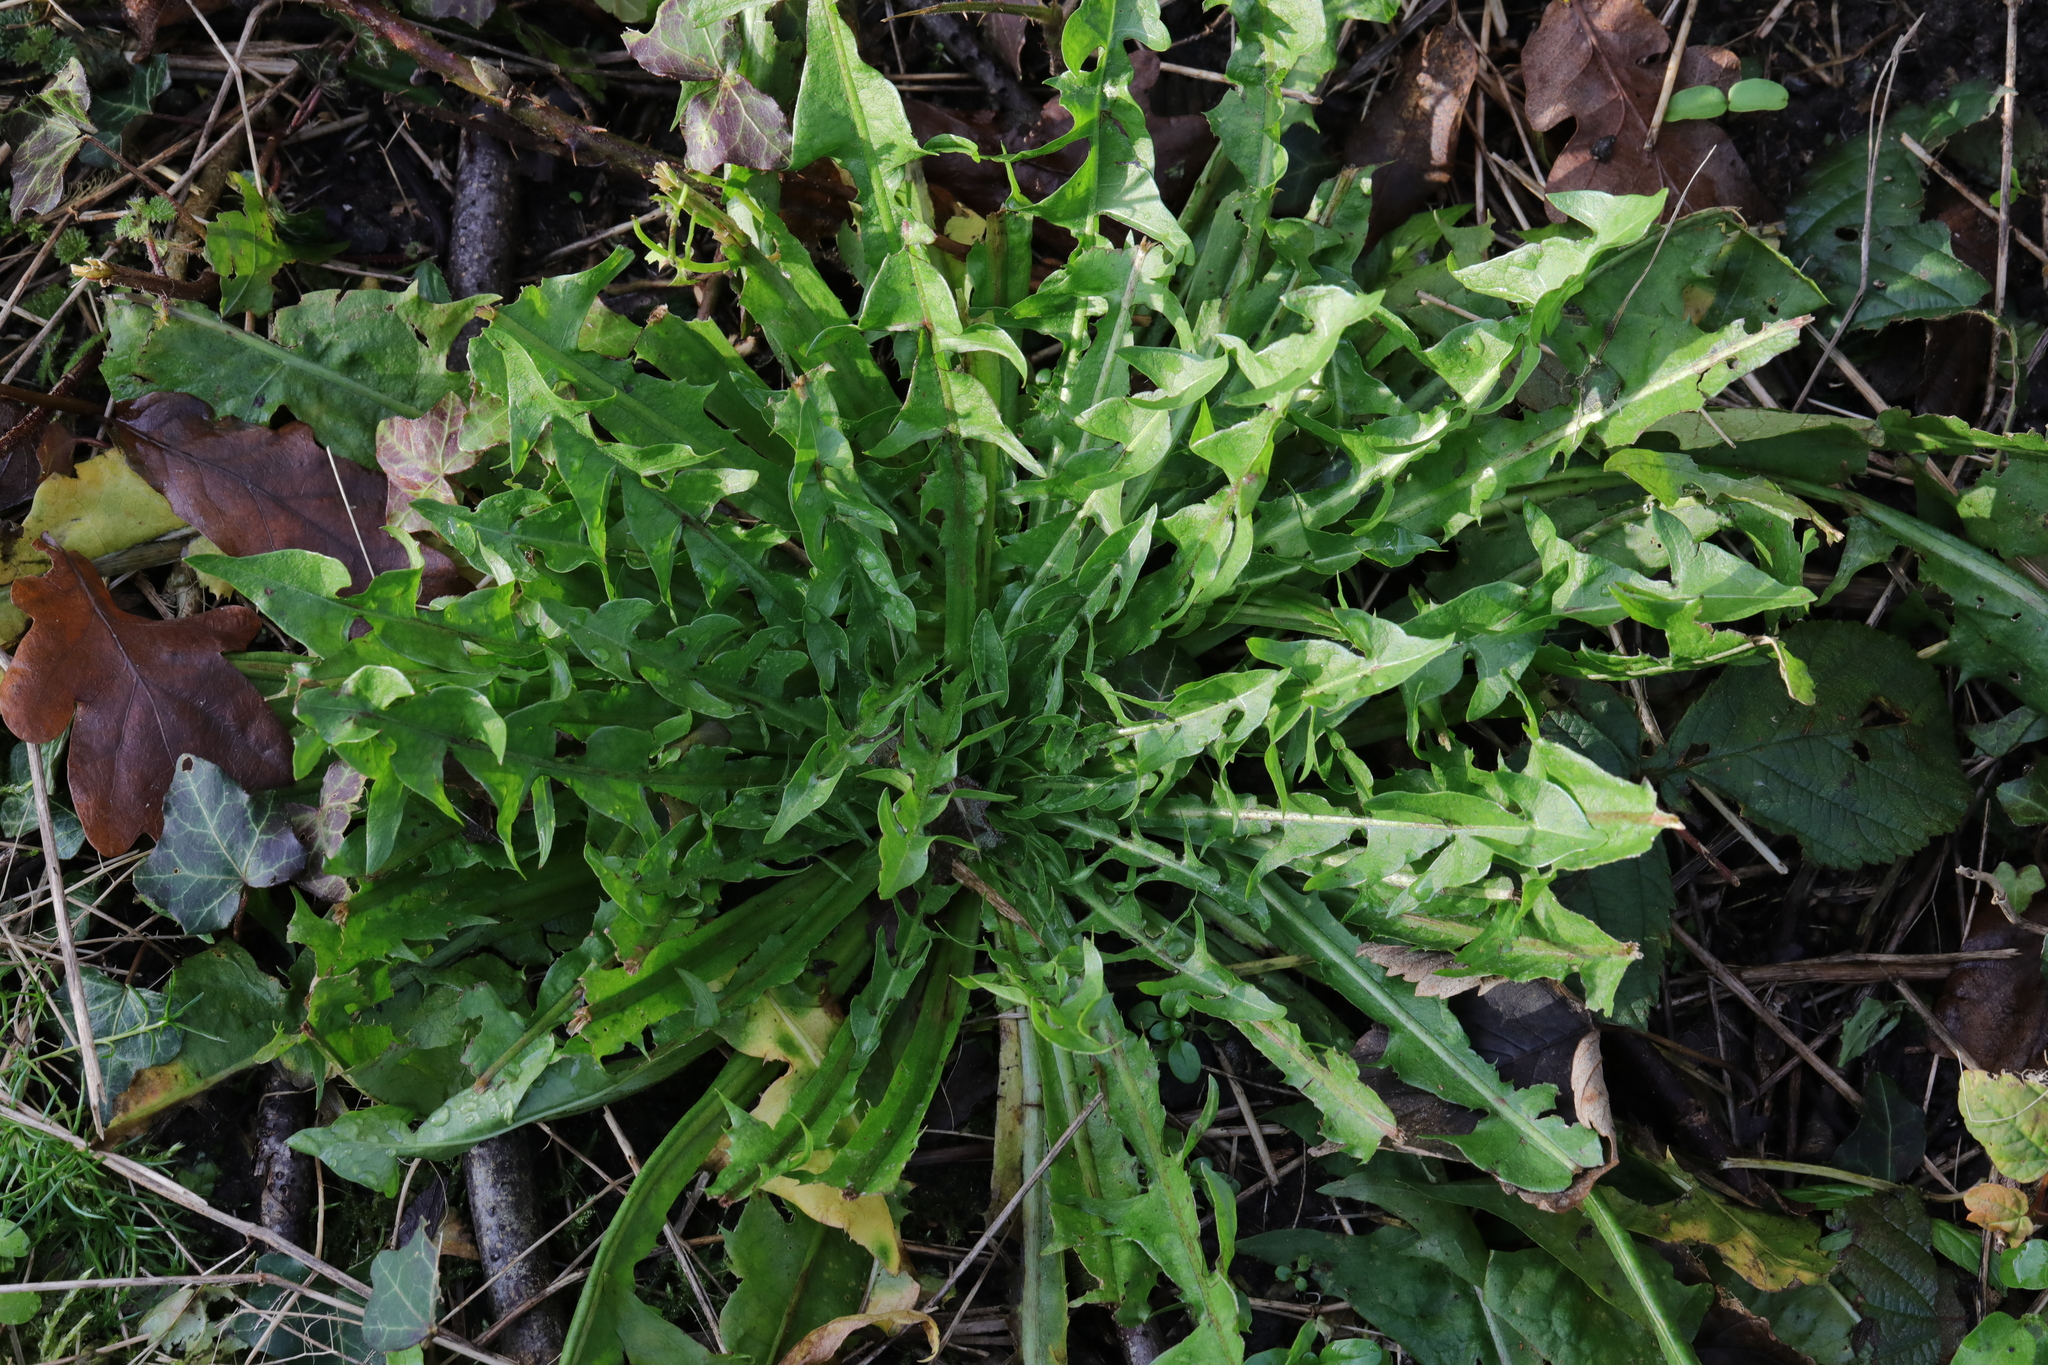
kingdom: Plantae
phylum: Tracheophyta
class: Magnoliopsida
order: Asterales
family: Asteraceae
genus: Taraxacum
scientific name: Taraxacum officinale
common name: Common dandelion
